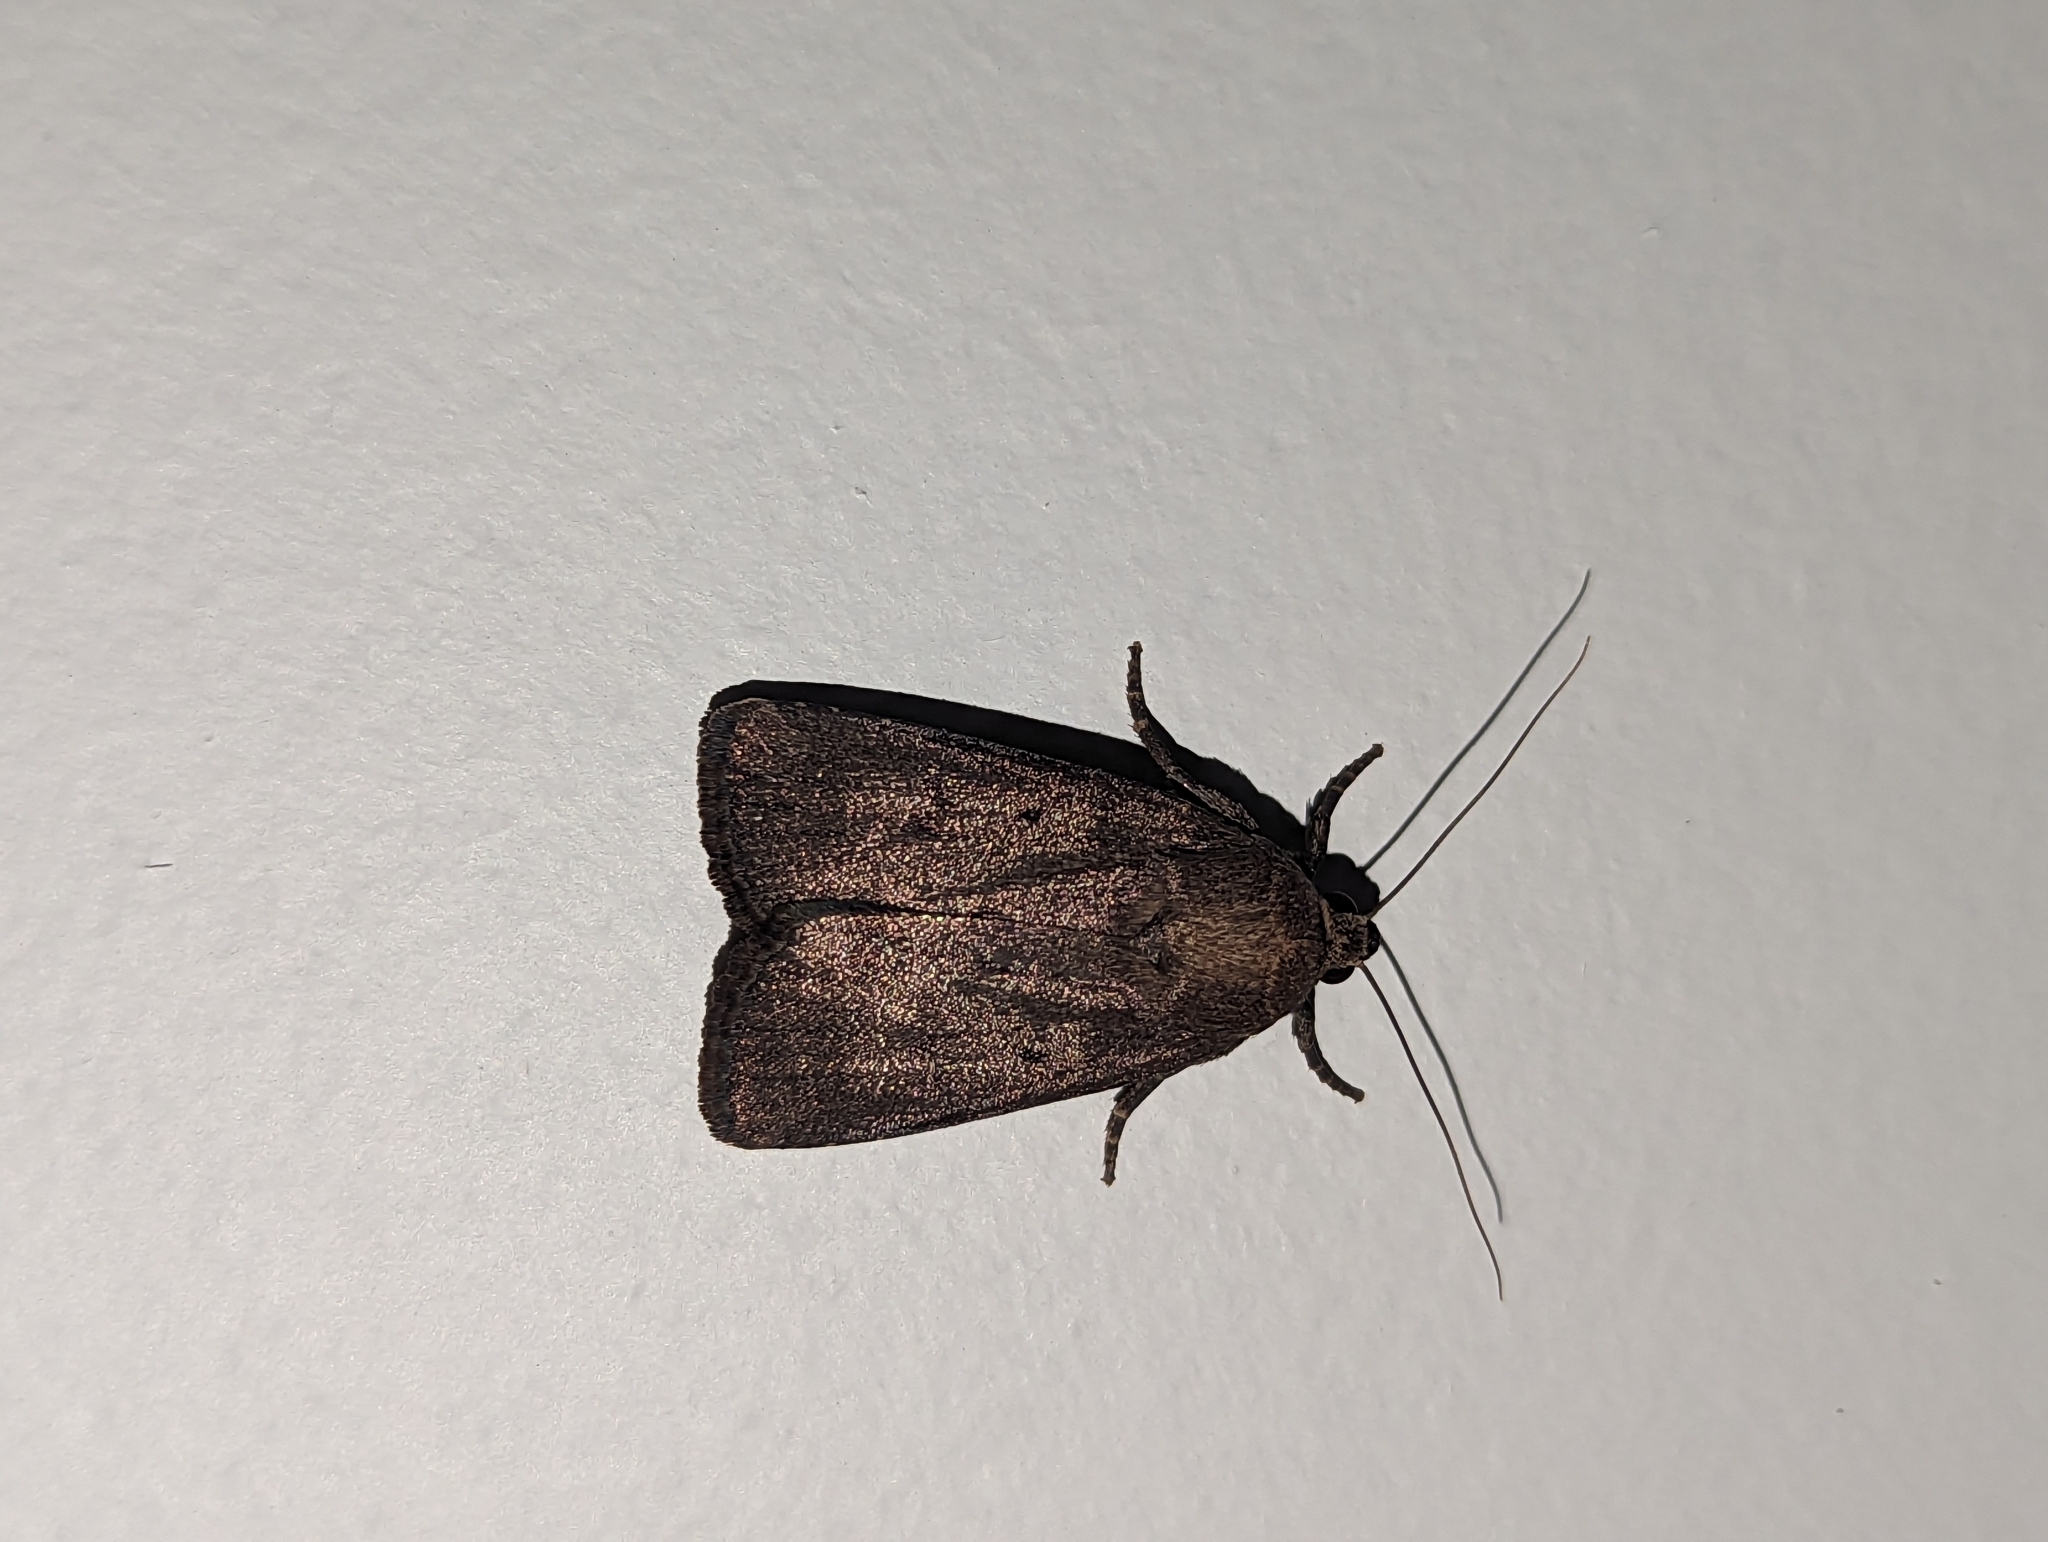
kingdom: Animalia
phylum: Arthropoda
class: Insecta
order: Lepidoptera
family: Noctuidae
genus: Amphipyra
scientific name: Amphipyra tragopoginis
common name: Mouse moth
